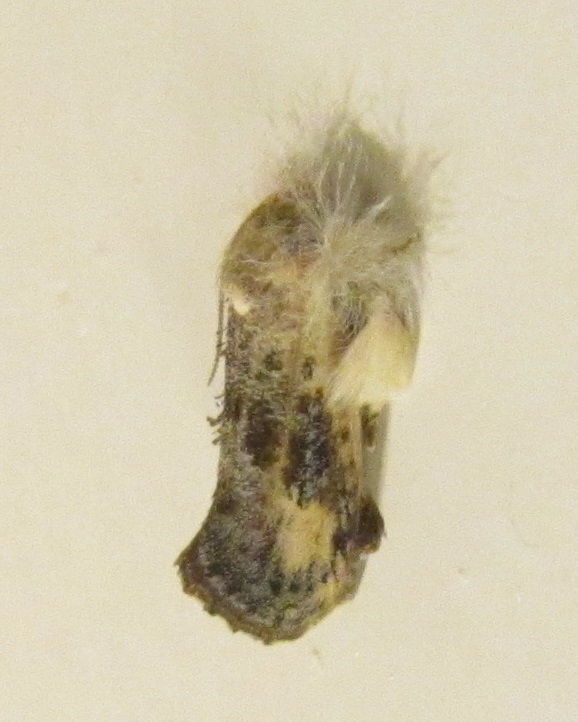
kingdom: Animalia
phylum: Arthropoda
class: Insecta
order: Lepidoptera
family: Tineidae
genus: Acrolophus
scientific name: Acrolophus mycetophagus
